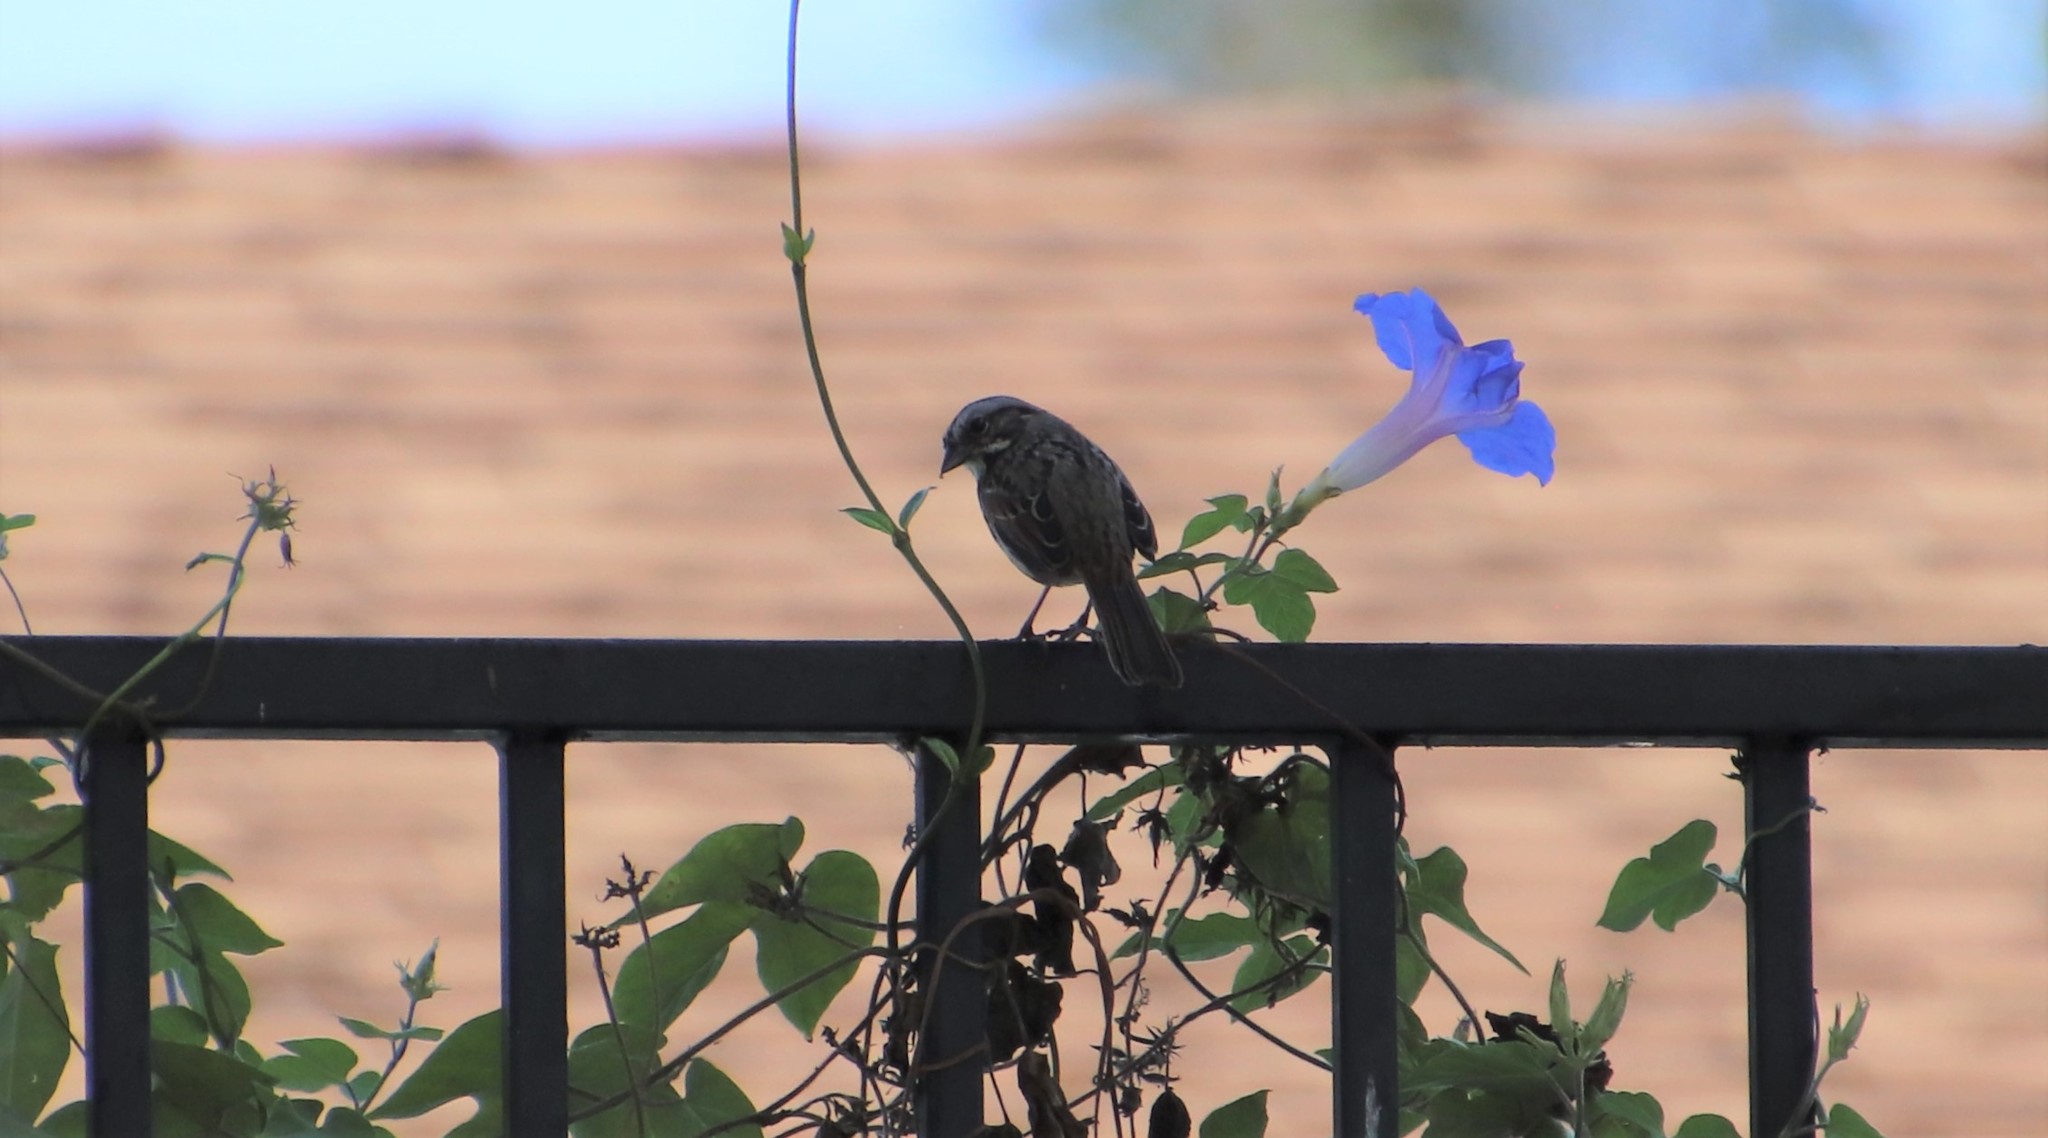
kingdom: Animalia
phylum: Chordata
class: Aves
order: Passeriformes
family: Passerellidae
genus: Melospiza
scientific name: Melospiza melodia
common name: Song sparrow
